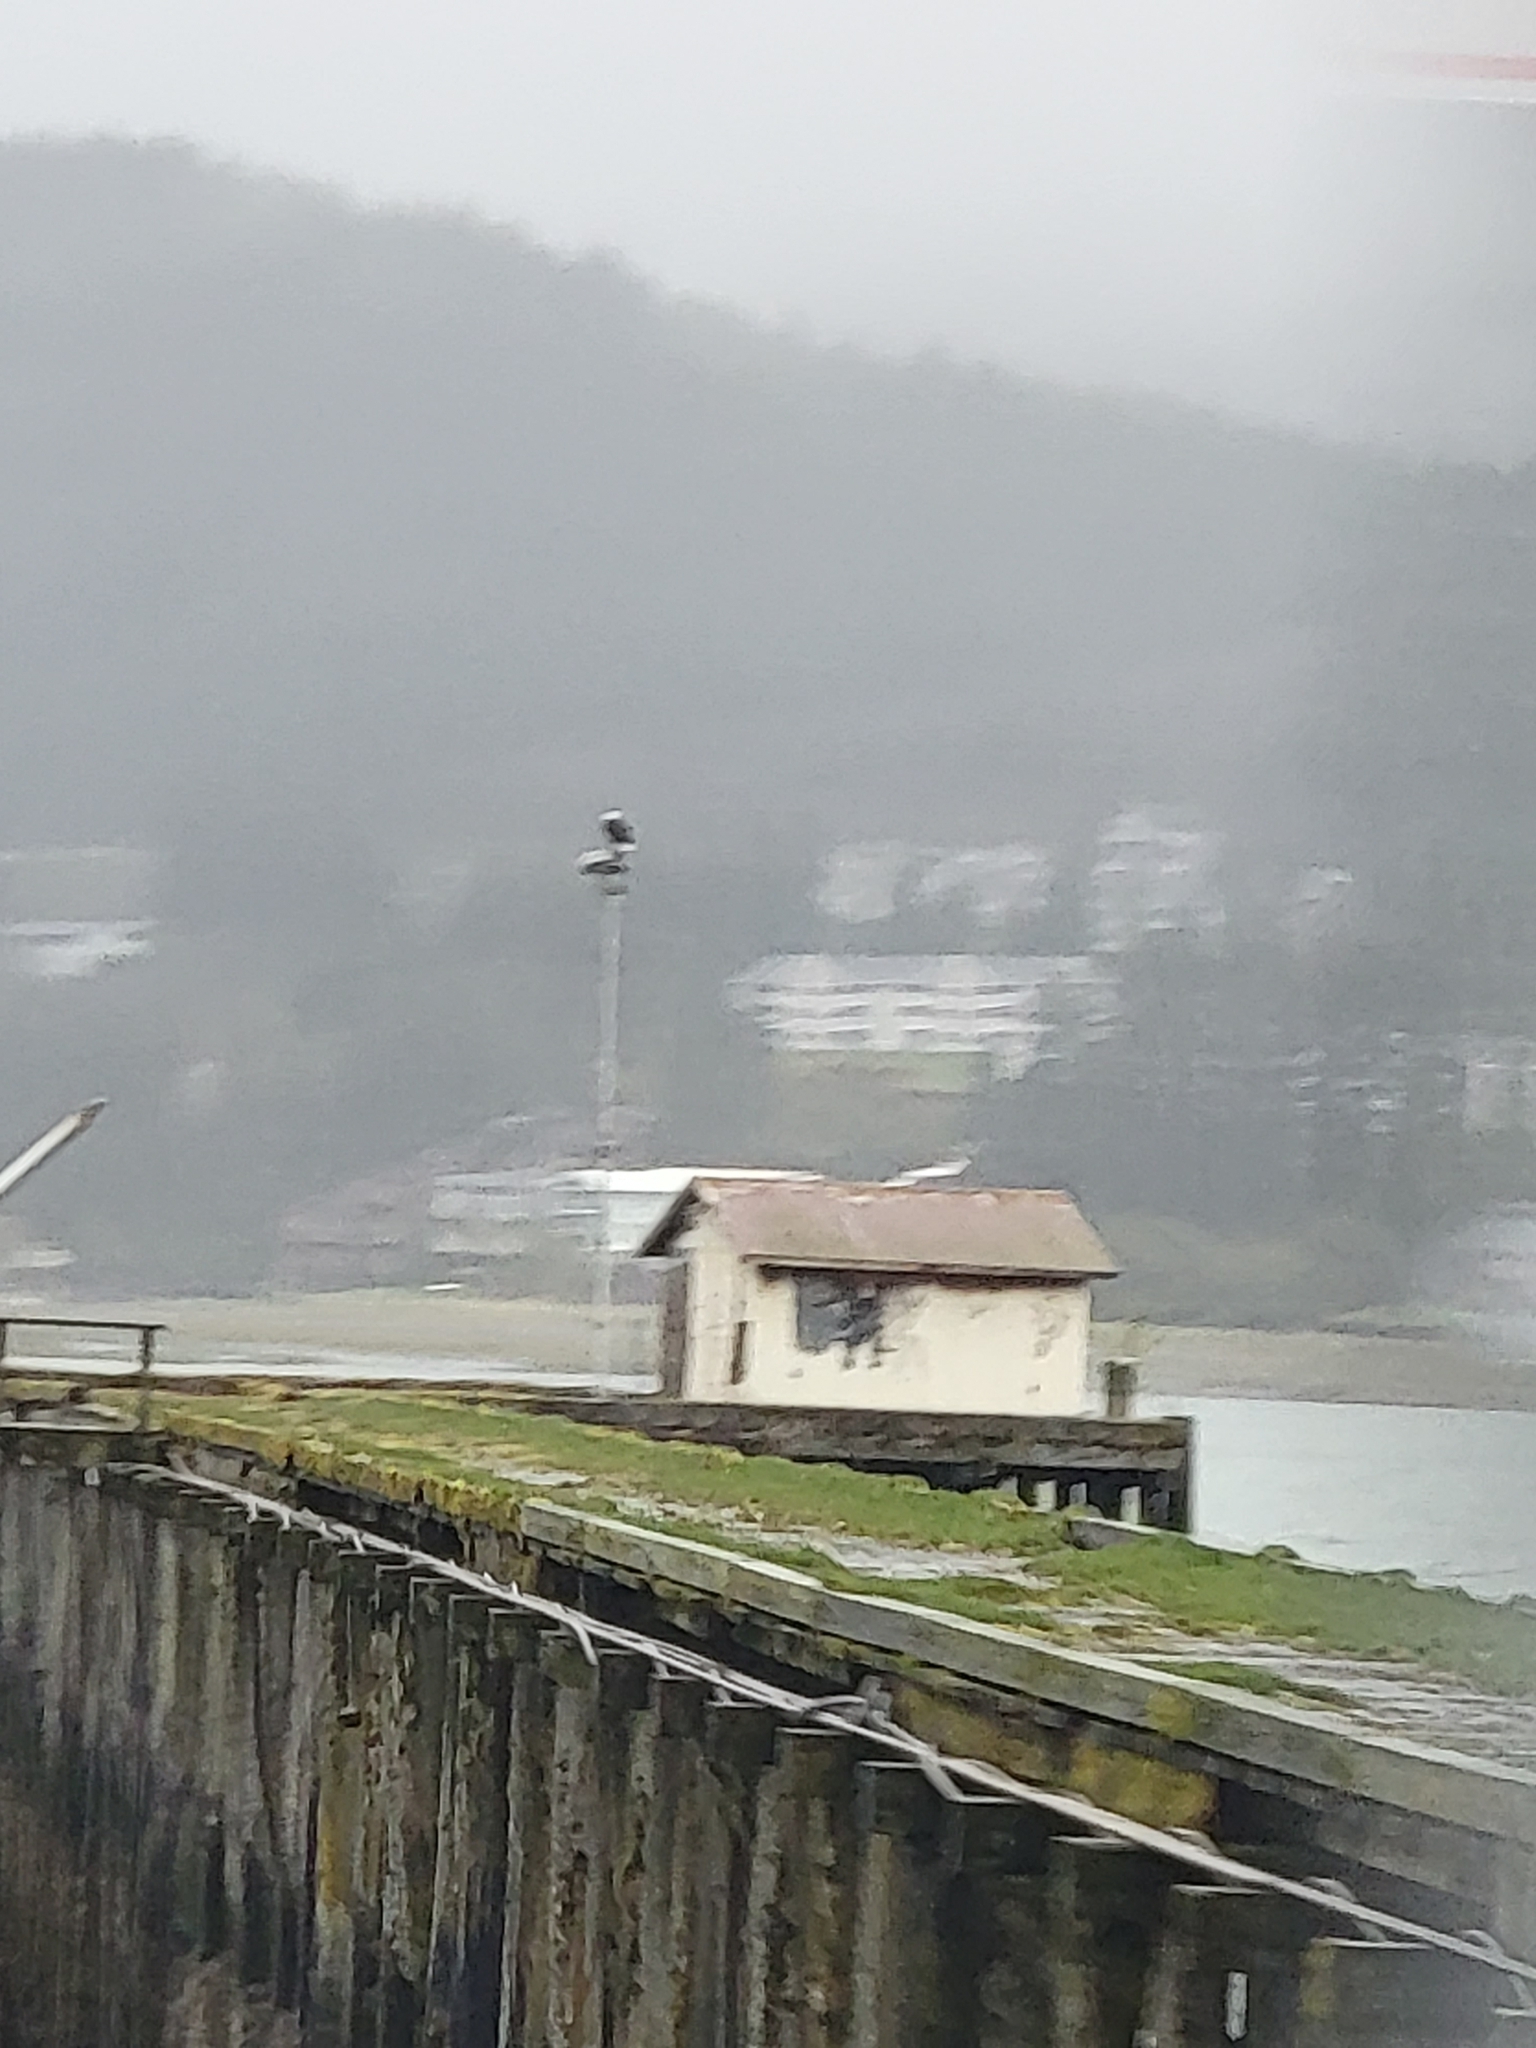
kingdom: Animalia
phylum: Chordata
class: Aves
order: Accipitriformes
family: Accipitridae
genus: Haliaeetus
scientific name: Haliaeetus leucocephalus
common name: Bald eagle
